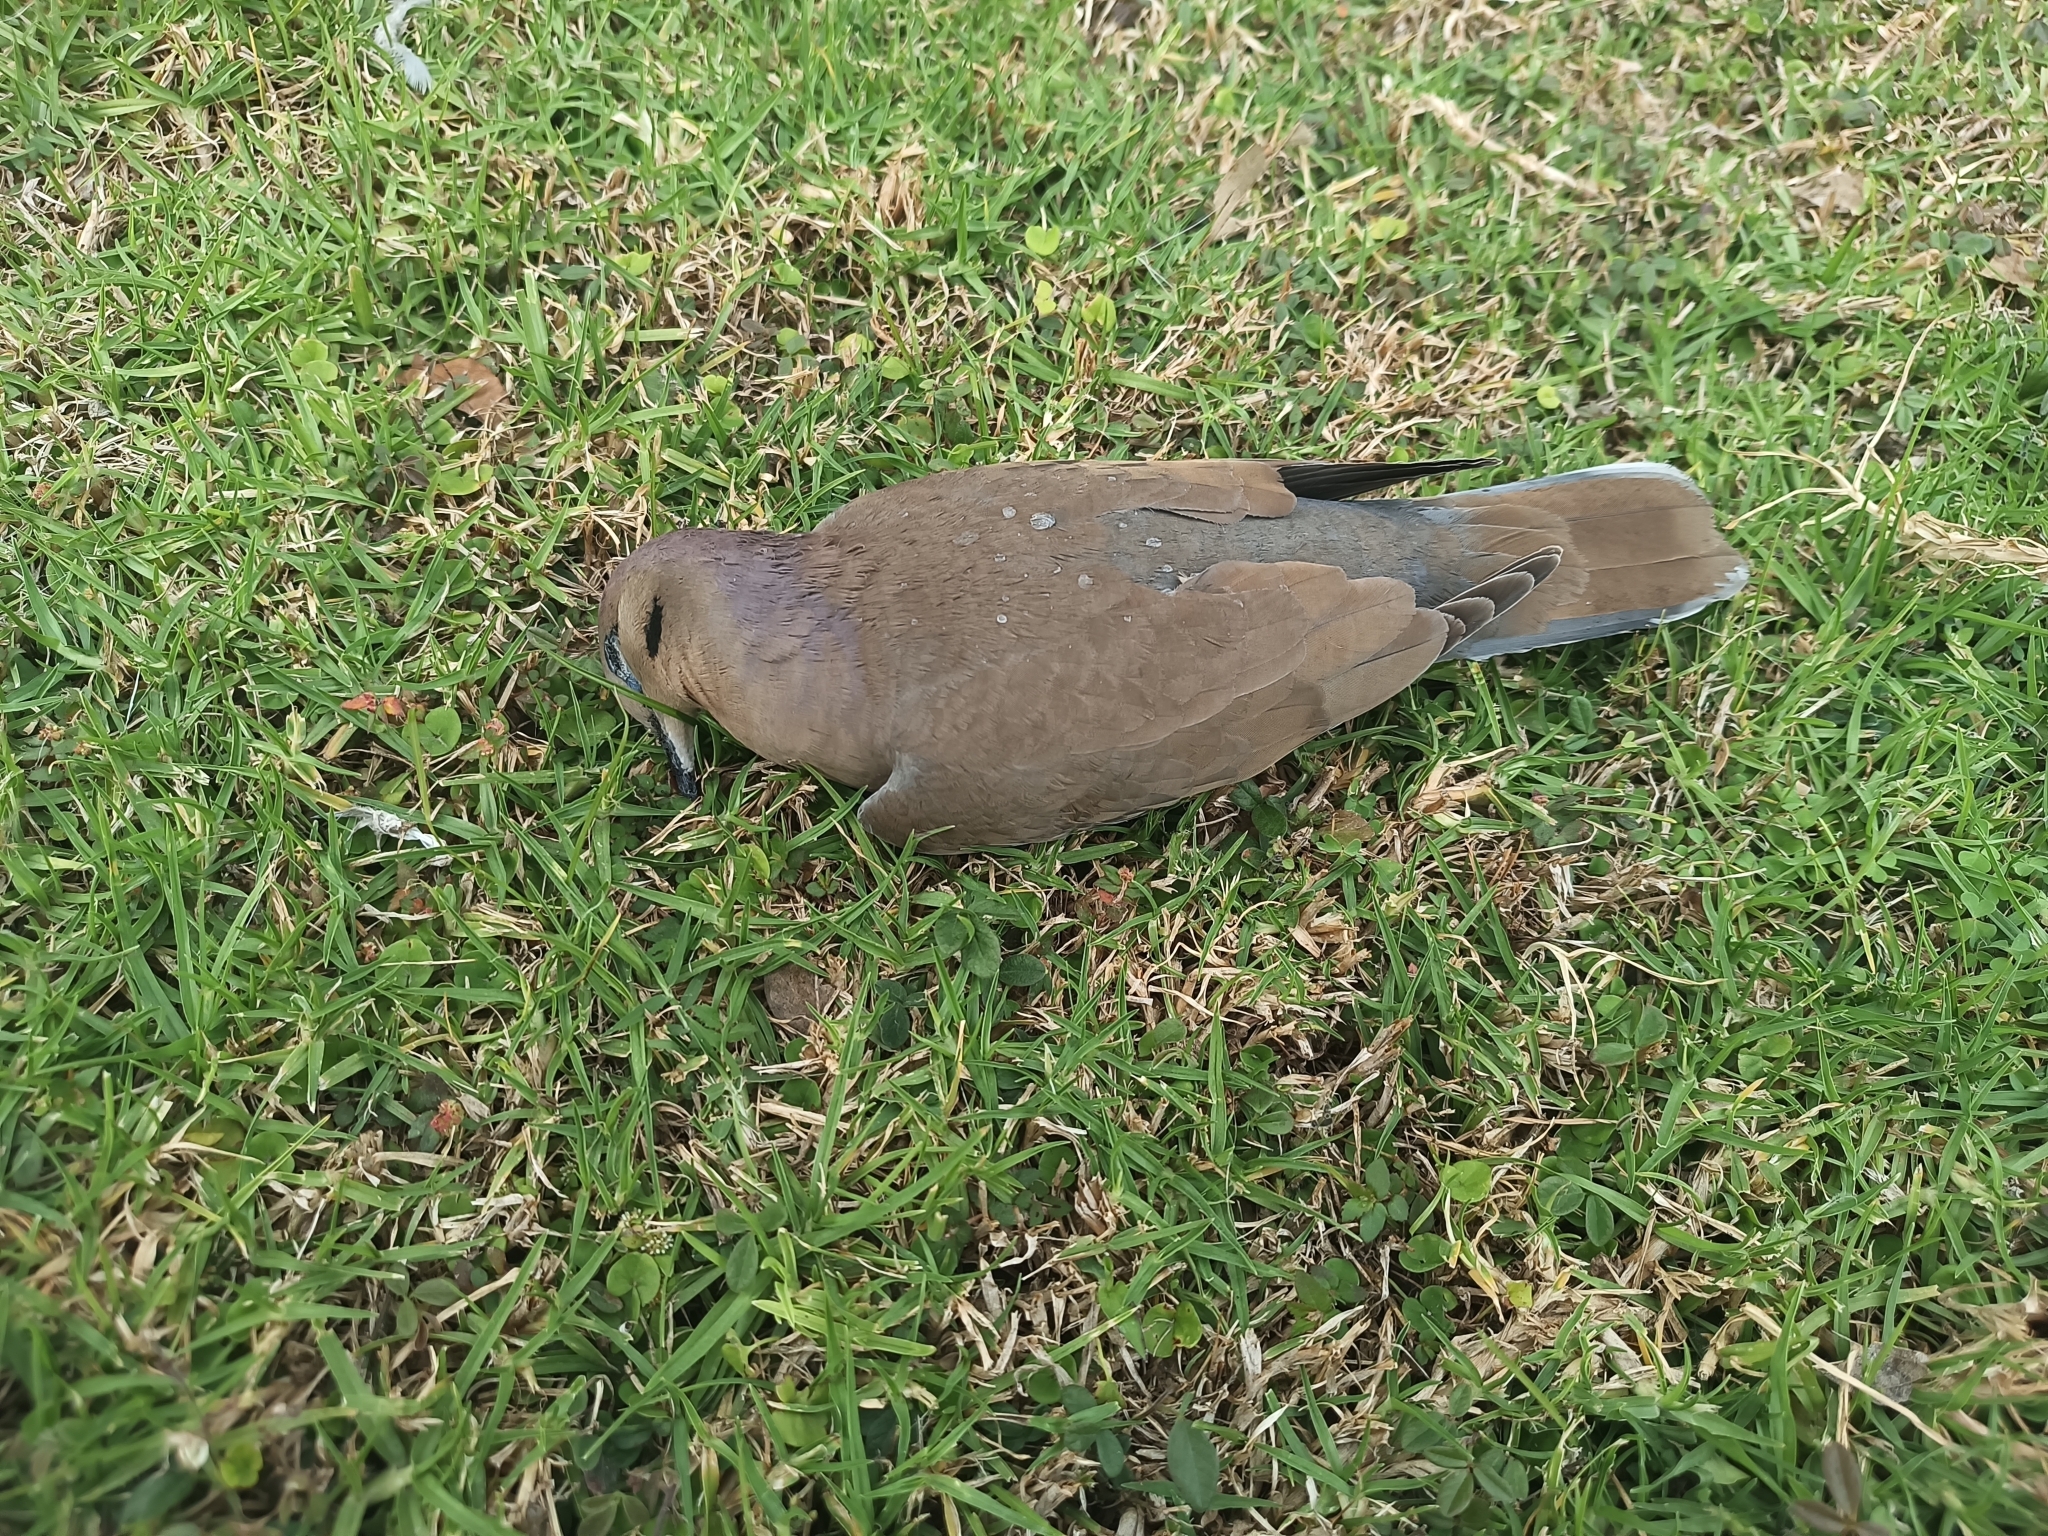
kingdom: Animalia
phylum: Chordata
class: Aves
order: Columbiformes
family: Columbidae
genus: Zenaida
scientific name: Zenaida asiatica
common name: White-winged dove
